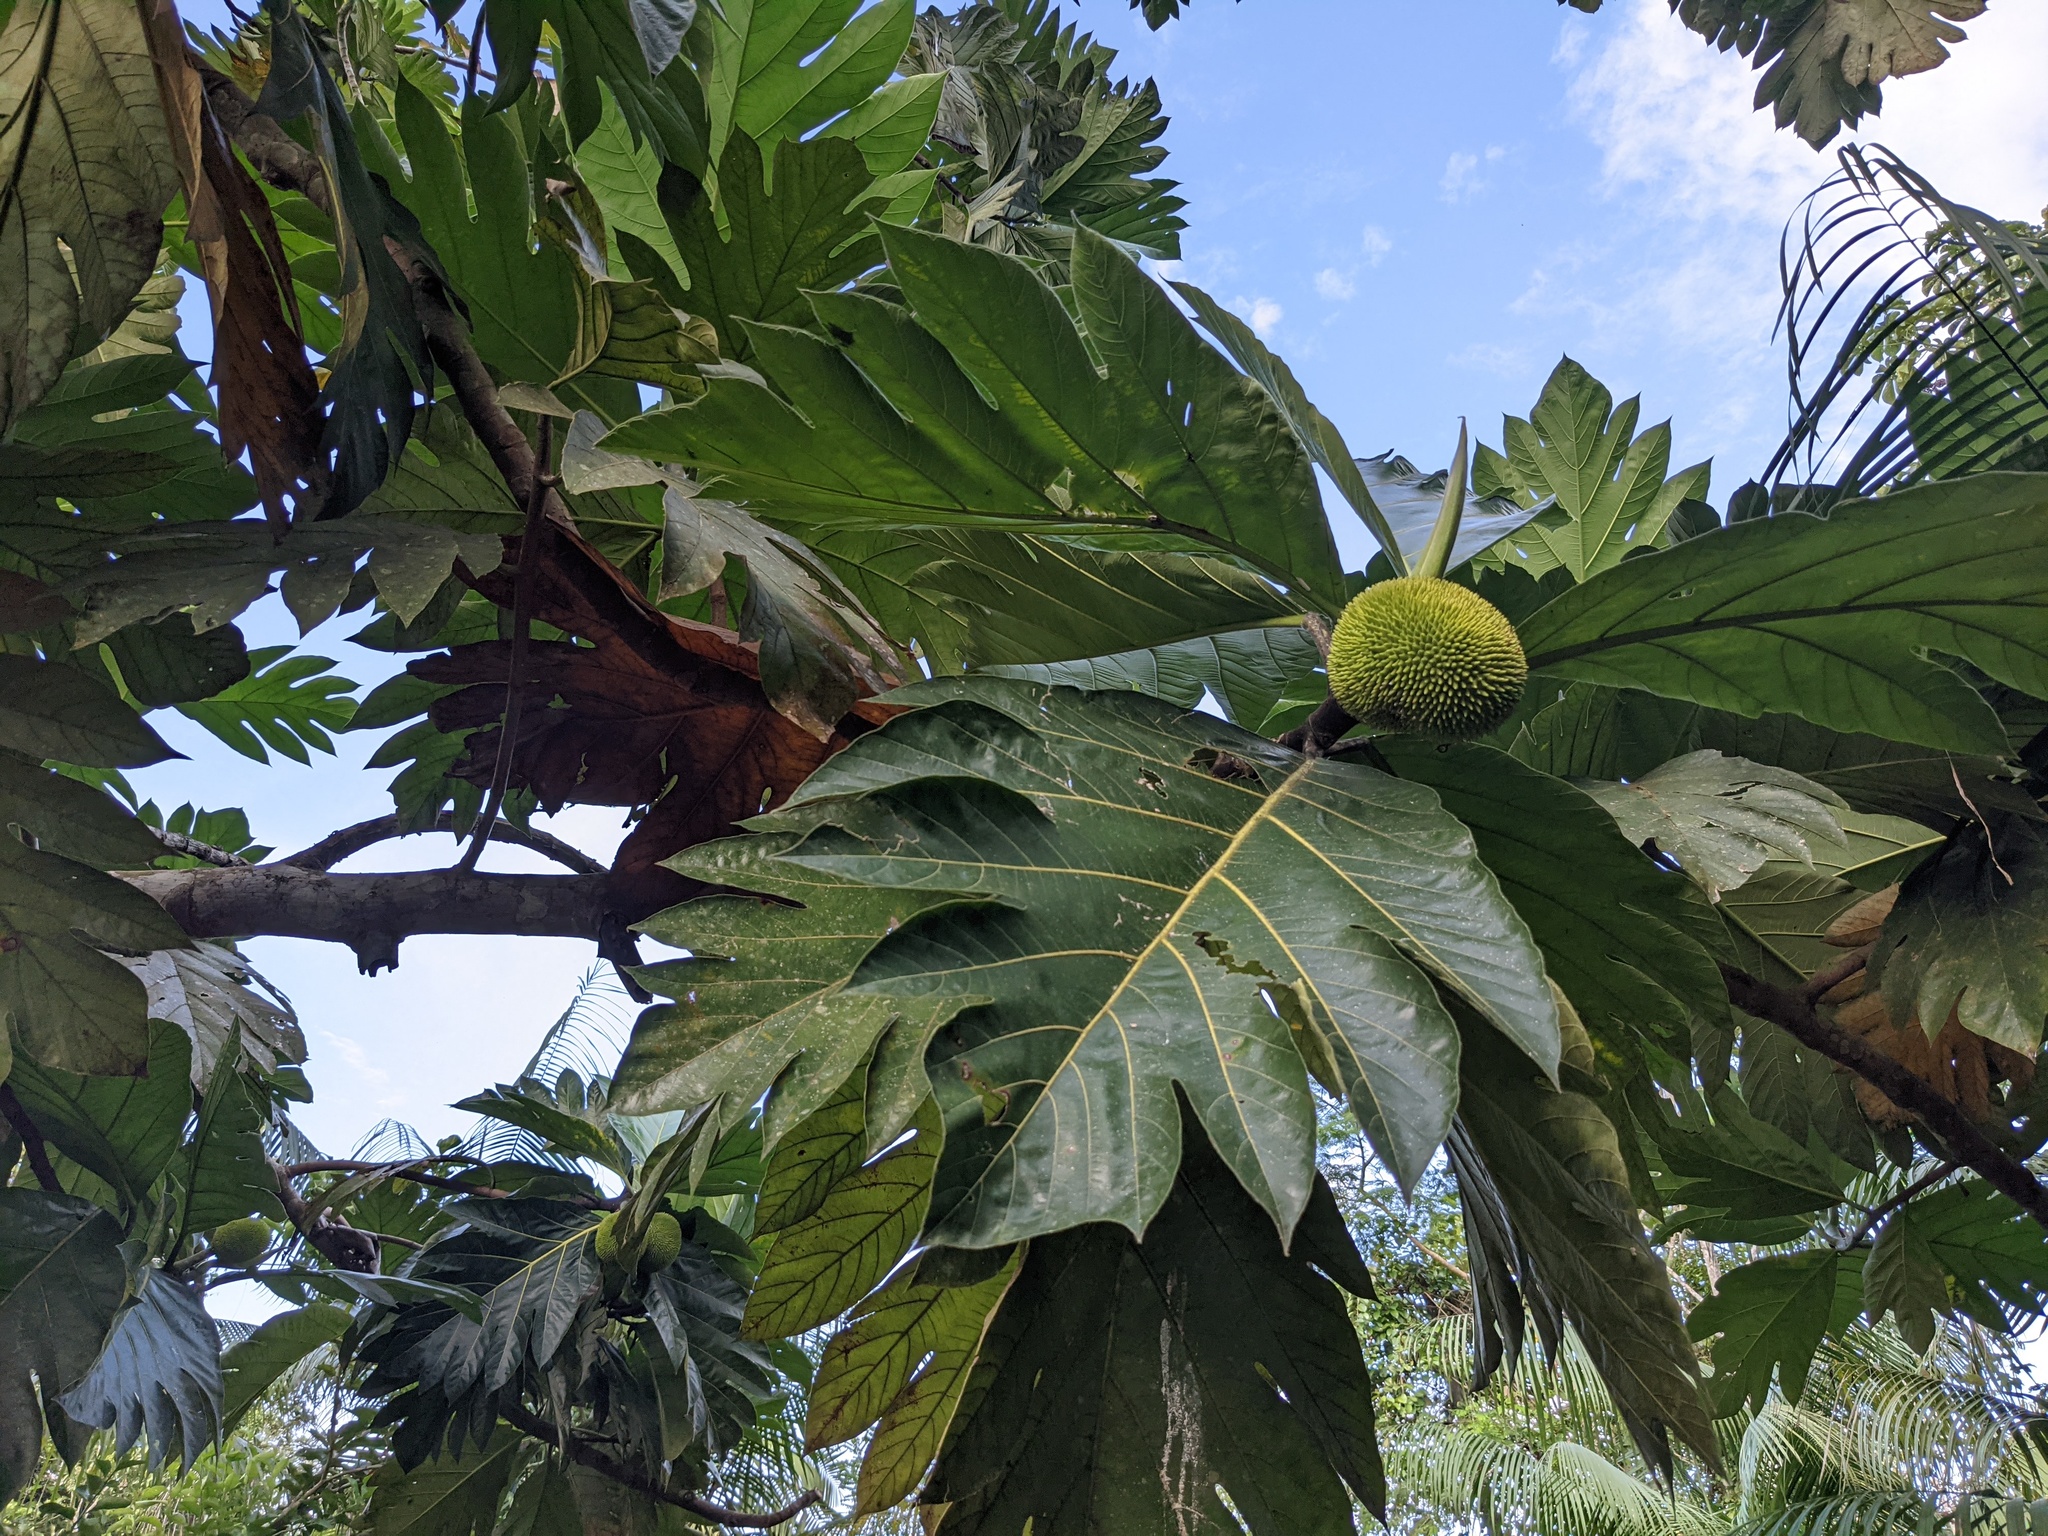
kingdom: Plantae
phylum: Tracheophyta
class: Magnoliopsida
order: Rosales
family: Moraceae
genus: Artocarpus
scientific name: Artocarpus altilis
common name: Breadfruit
